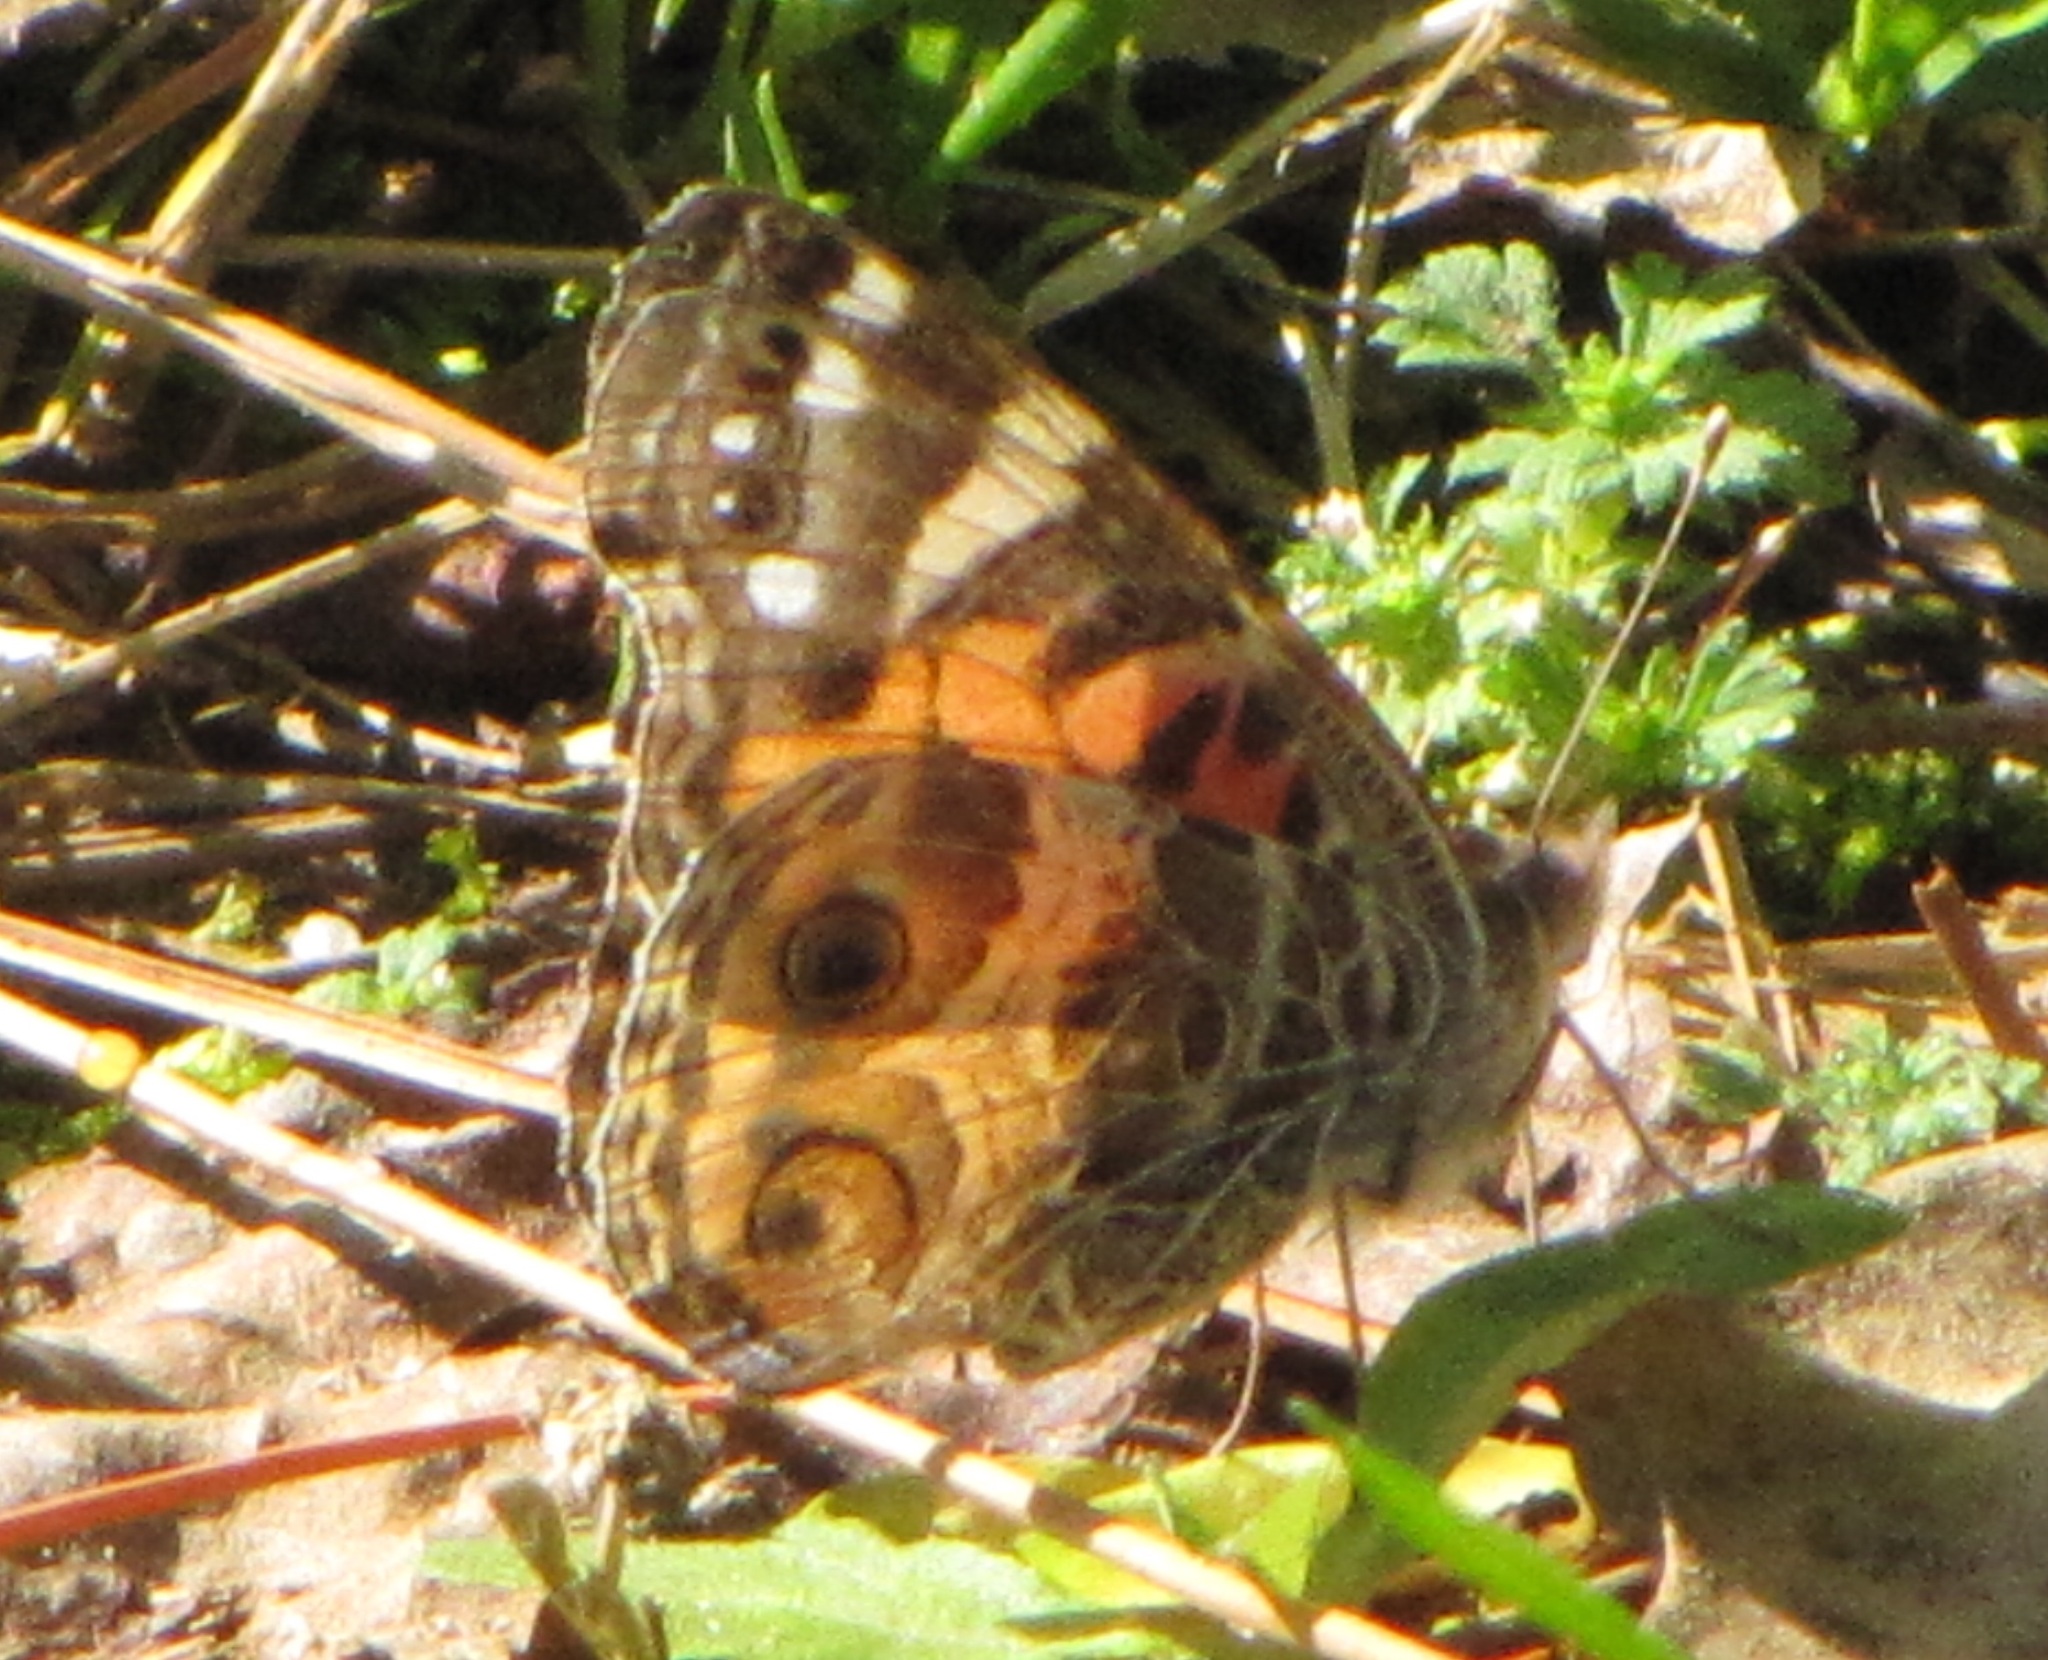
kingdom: Animalia
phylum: Arthropoda
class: Insecta
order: Lepidoptera
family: Nymphalidae
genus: Vanessa
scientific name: Vanessa virginiensis
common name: American lady
